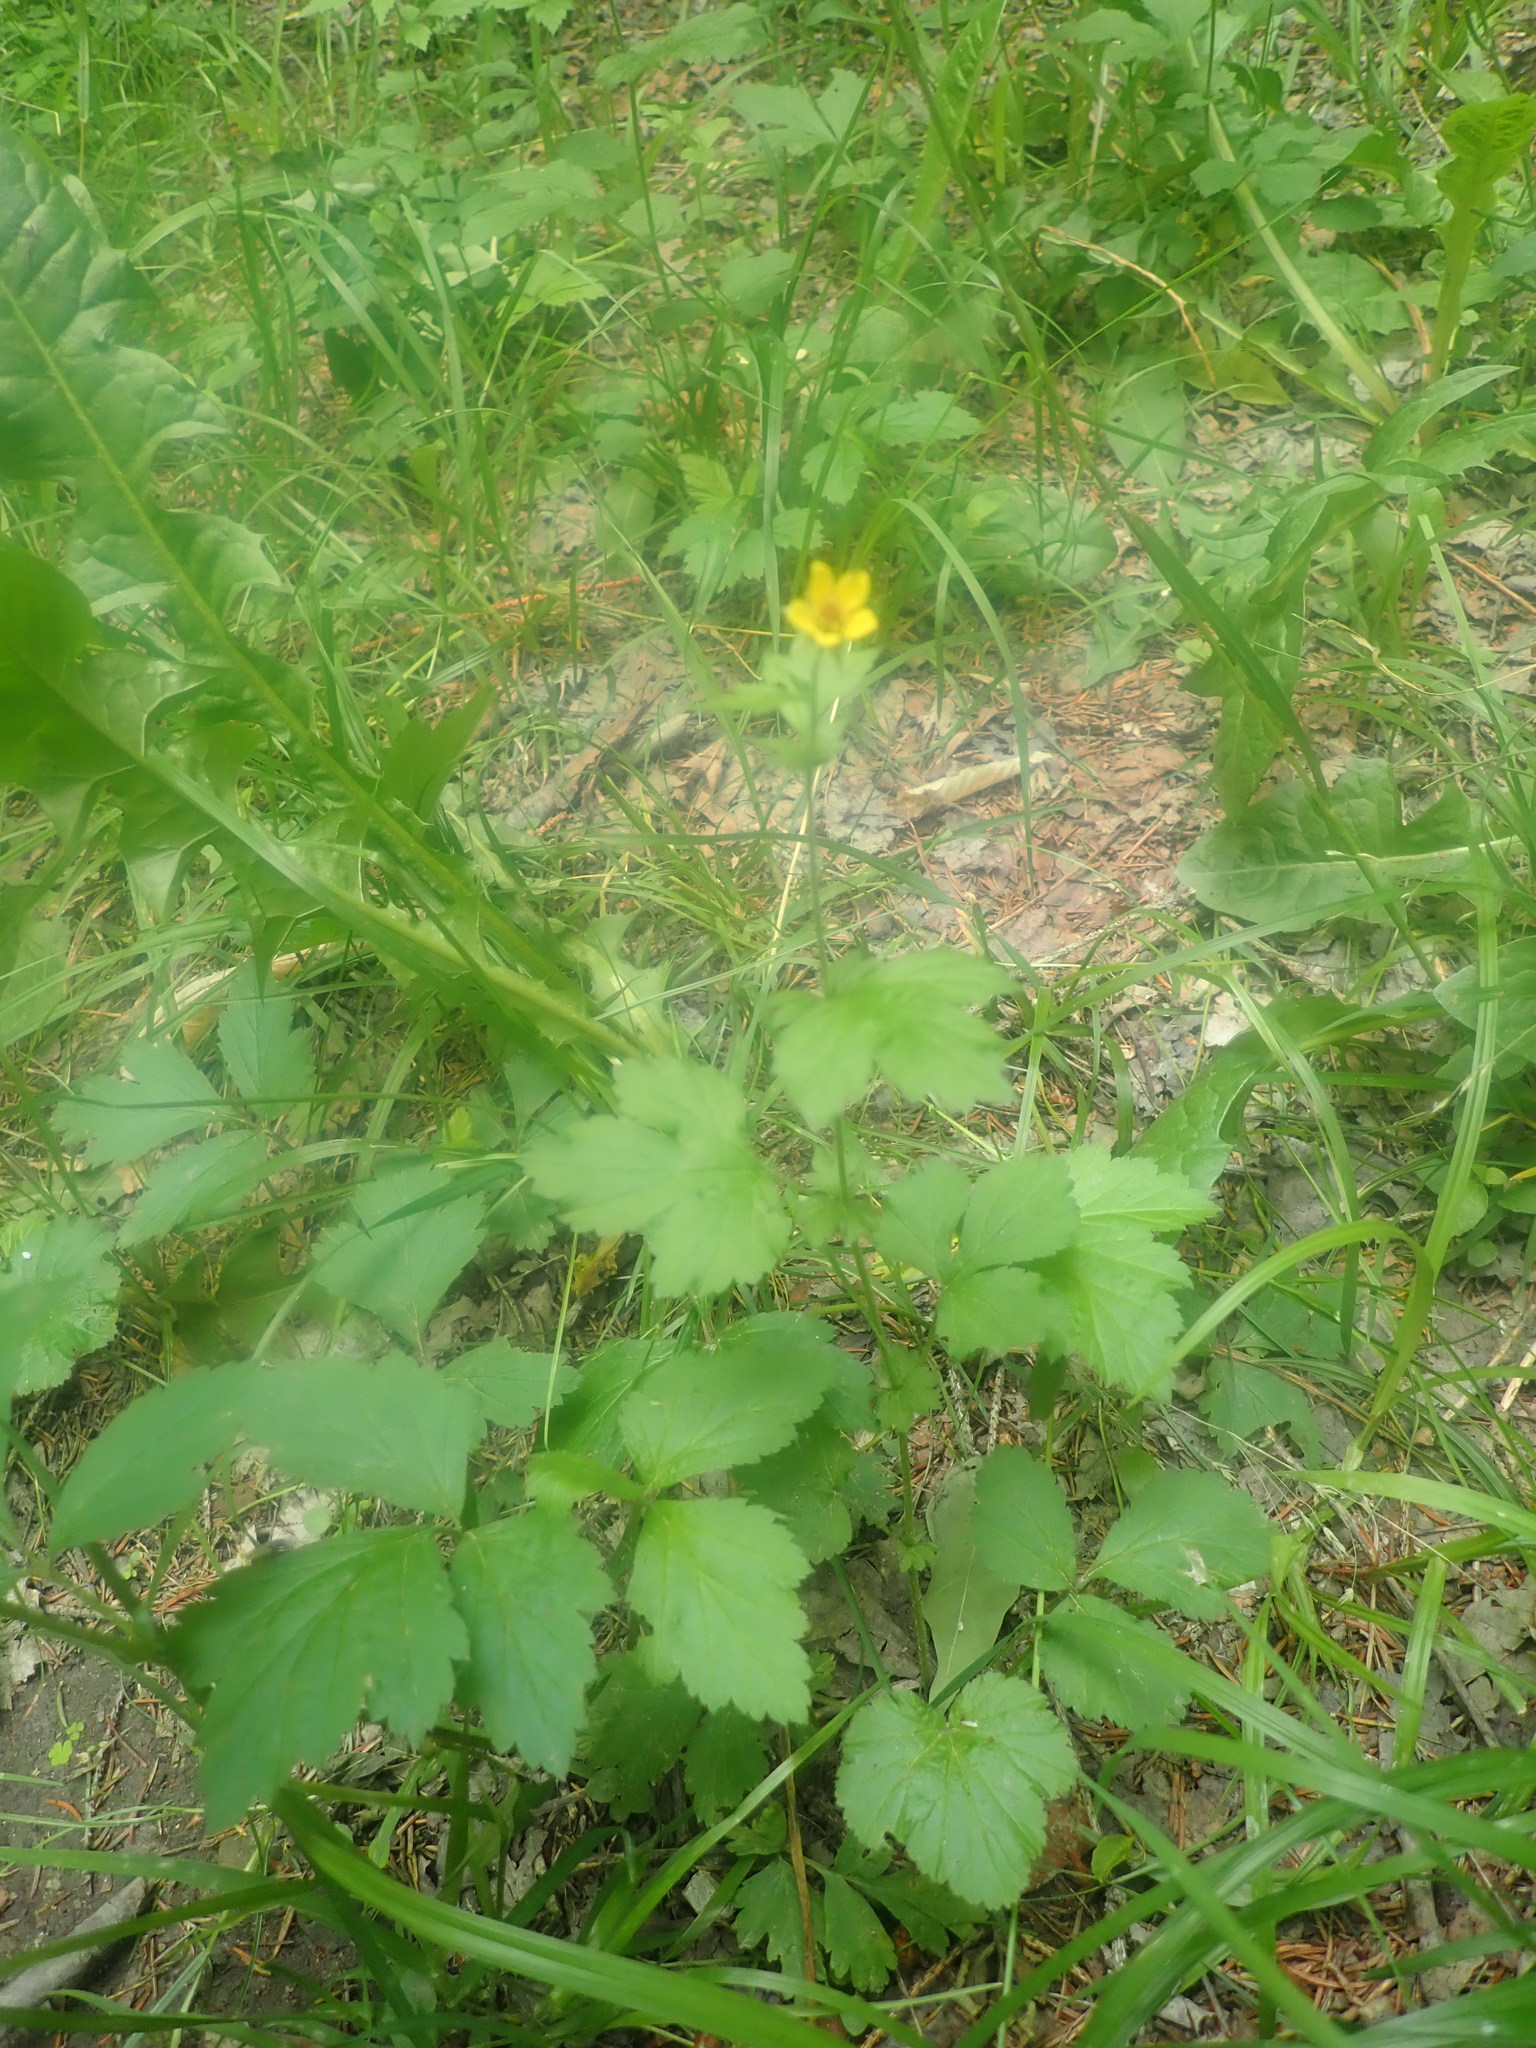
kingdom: Plantae
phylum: Tracheophyta
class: Magnoliopsida
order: Rosales
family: Rosaceae
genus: Geum
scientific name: Geum urbanum
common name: Wood avens
